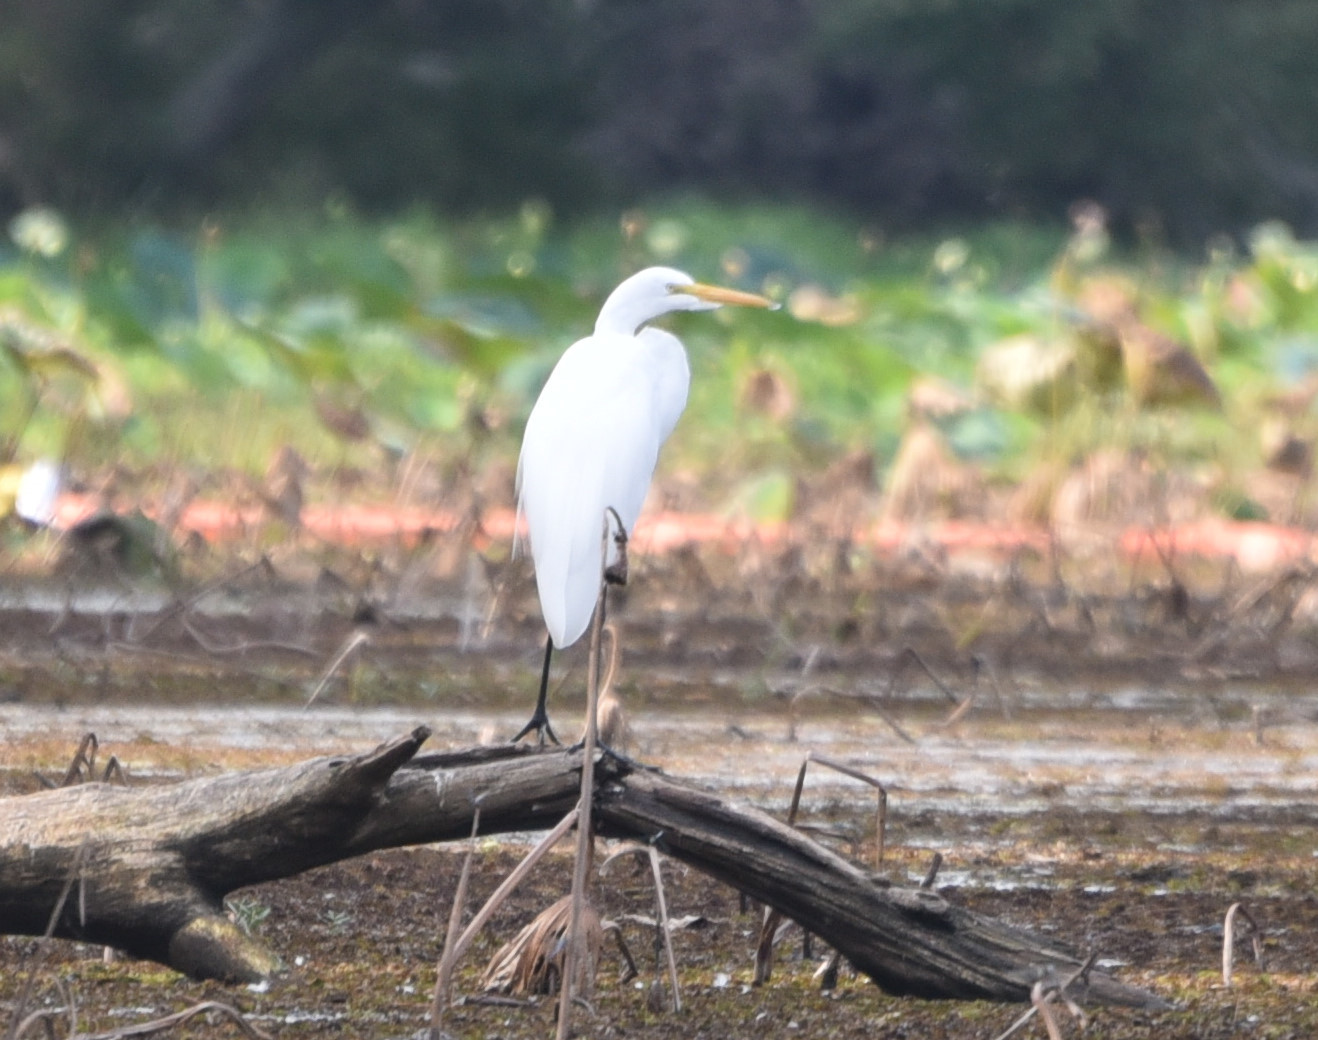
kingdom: Animalia
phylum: Chordata
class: Aves
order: Pelecaniformes
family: Ardeidae
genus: Ardea
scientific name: Ardea alba
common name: Great egret
